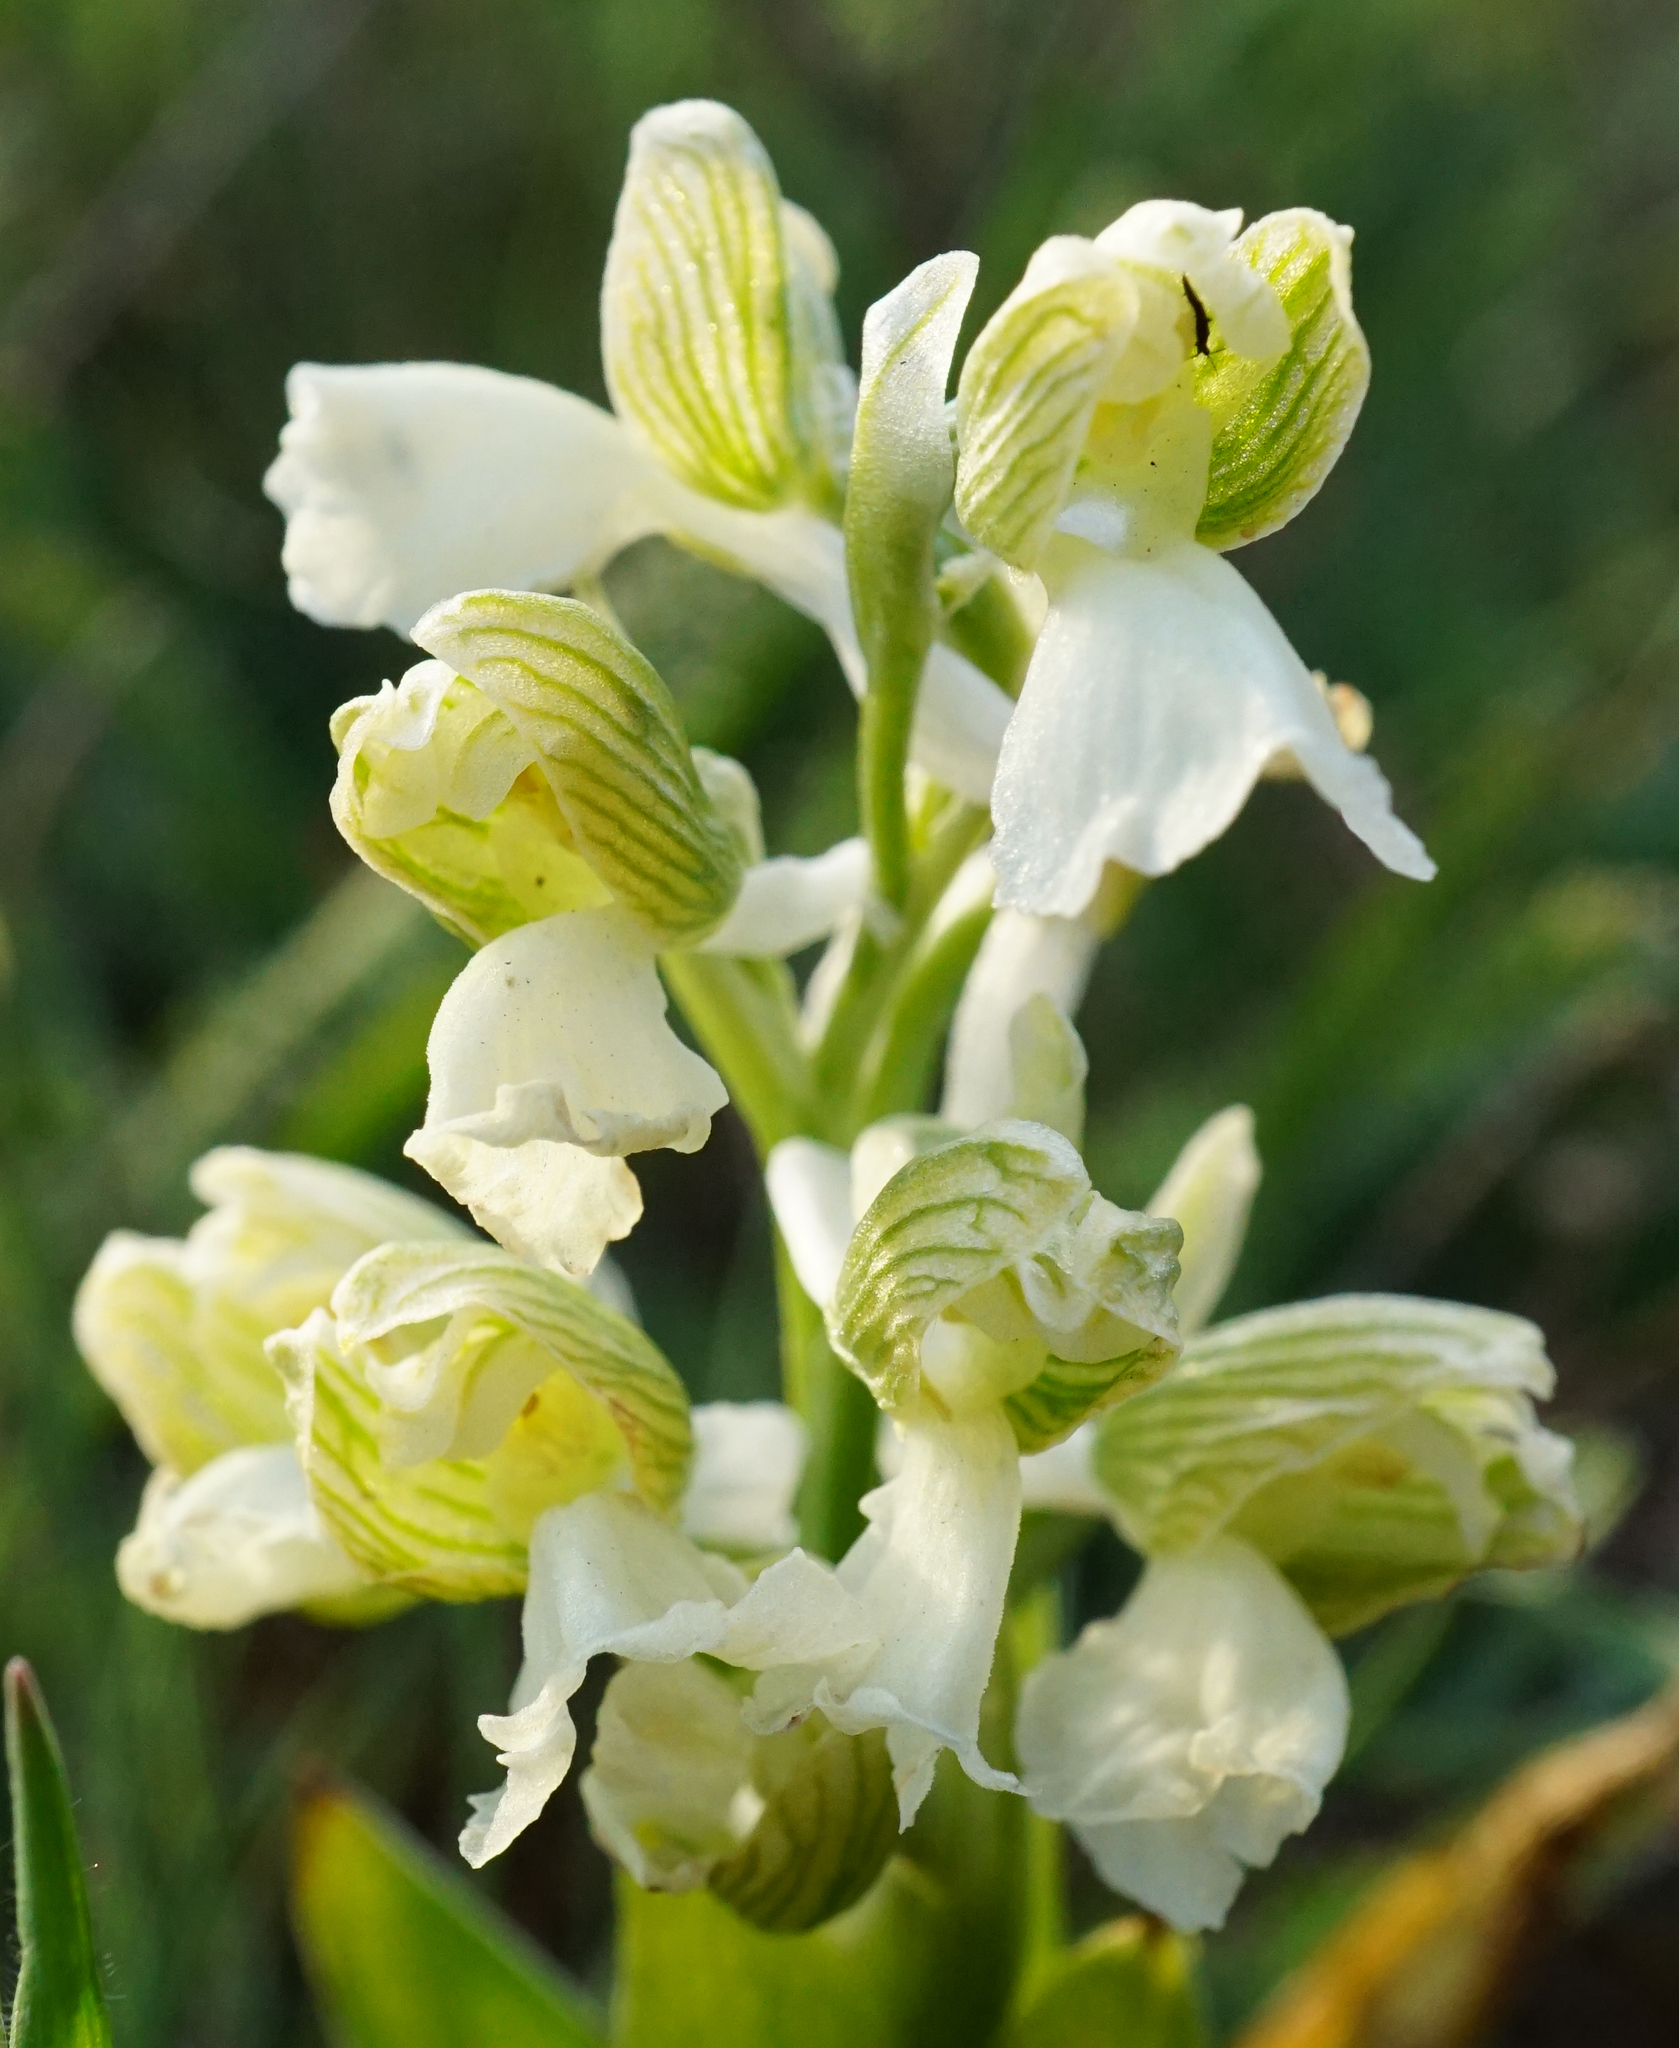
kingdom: Plantae
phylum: Tracheophyta
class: Liliopsida
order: Asparagales
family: Orchidaceae
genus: Anacamptis
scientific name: Anacamptis morio
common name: Green-winged orchid
